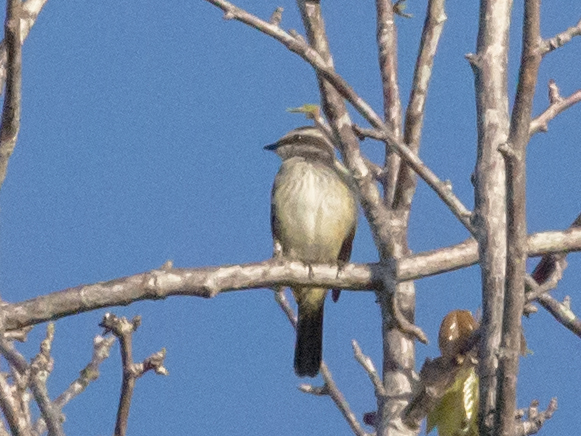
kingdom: Animalia
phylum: Chordata
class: Aves
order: Passeriformes
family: Tyrannidae
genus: Legatus
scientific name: Legatus leucophaius
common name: Piratic flycatcher
